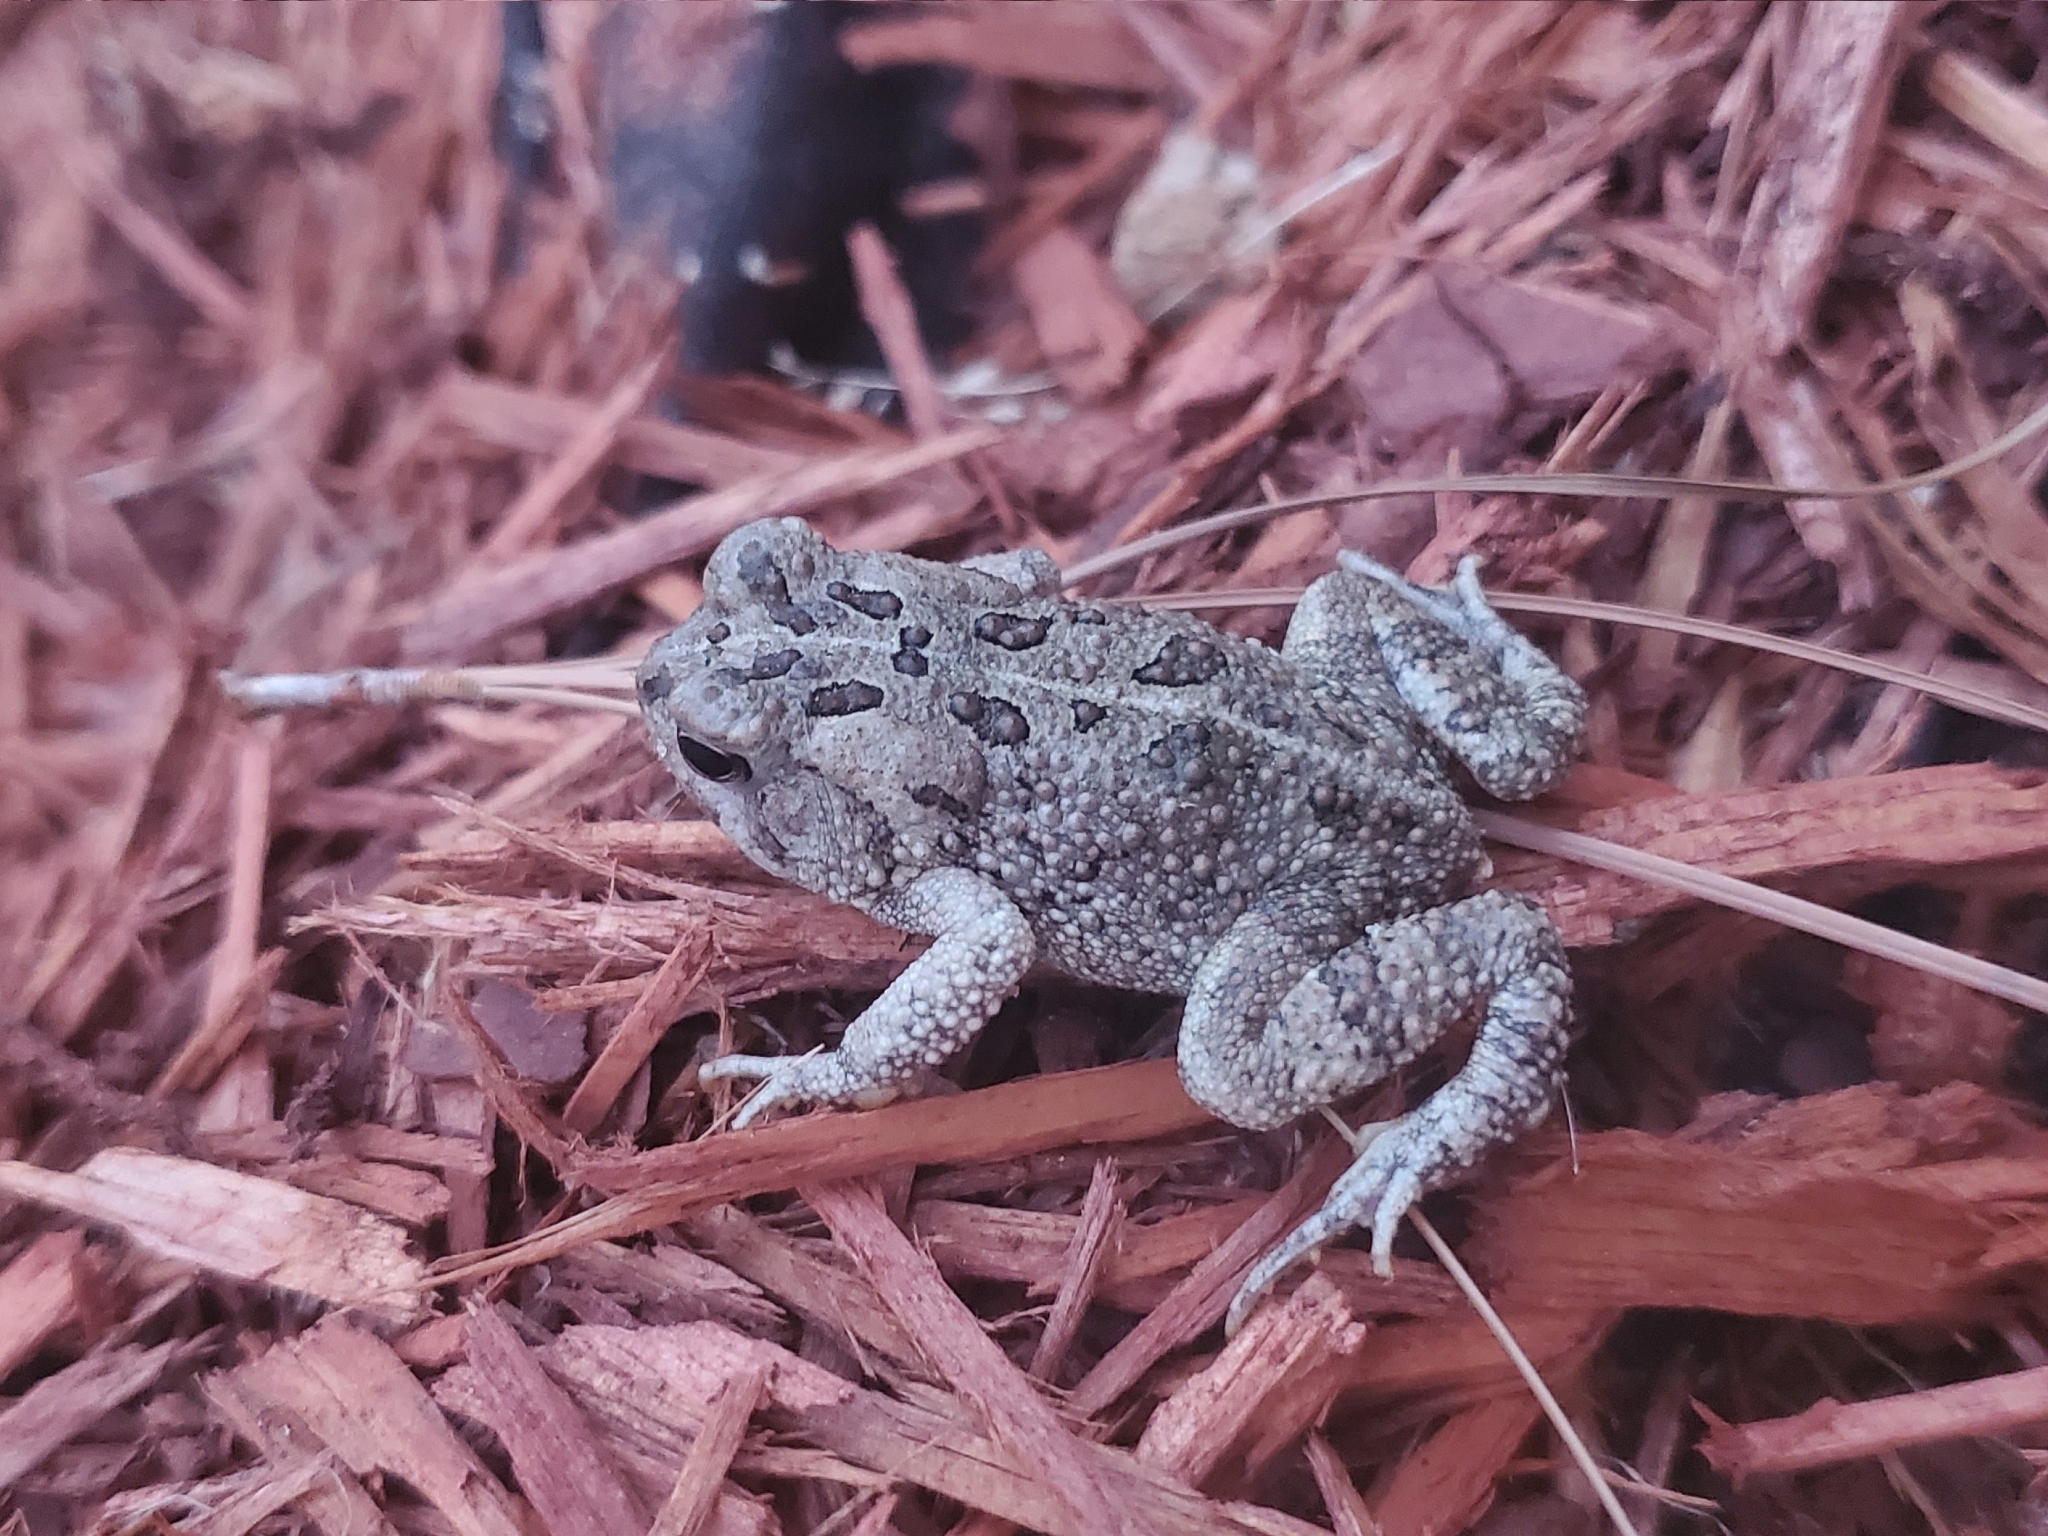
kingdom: Animalia
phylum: Chordata
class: Amphibia
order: Anura
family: Bufonidae
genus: Anaxyrus
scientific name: Anaxyrus fowleri
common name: Fowler's toad
